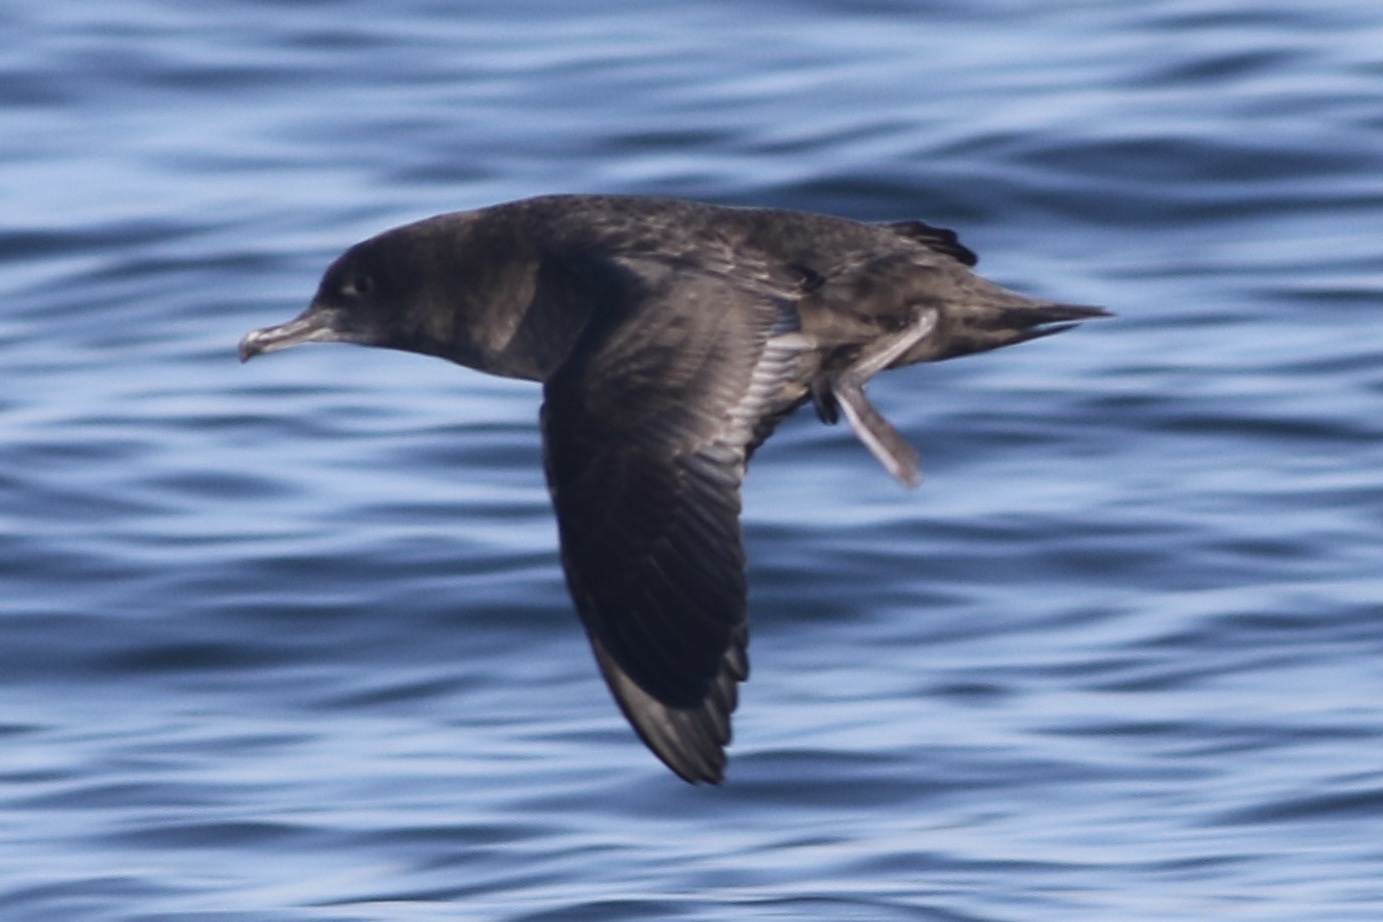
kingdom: Animalia
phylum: Chordata
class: Aves
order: Procellariiformes
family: Procellariidae
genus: Puffinus
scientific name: Puffinus griseus
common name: Sooty shearwater
